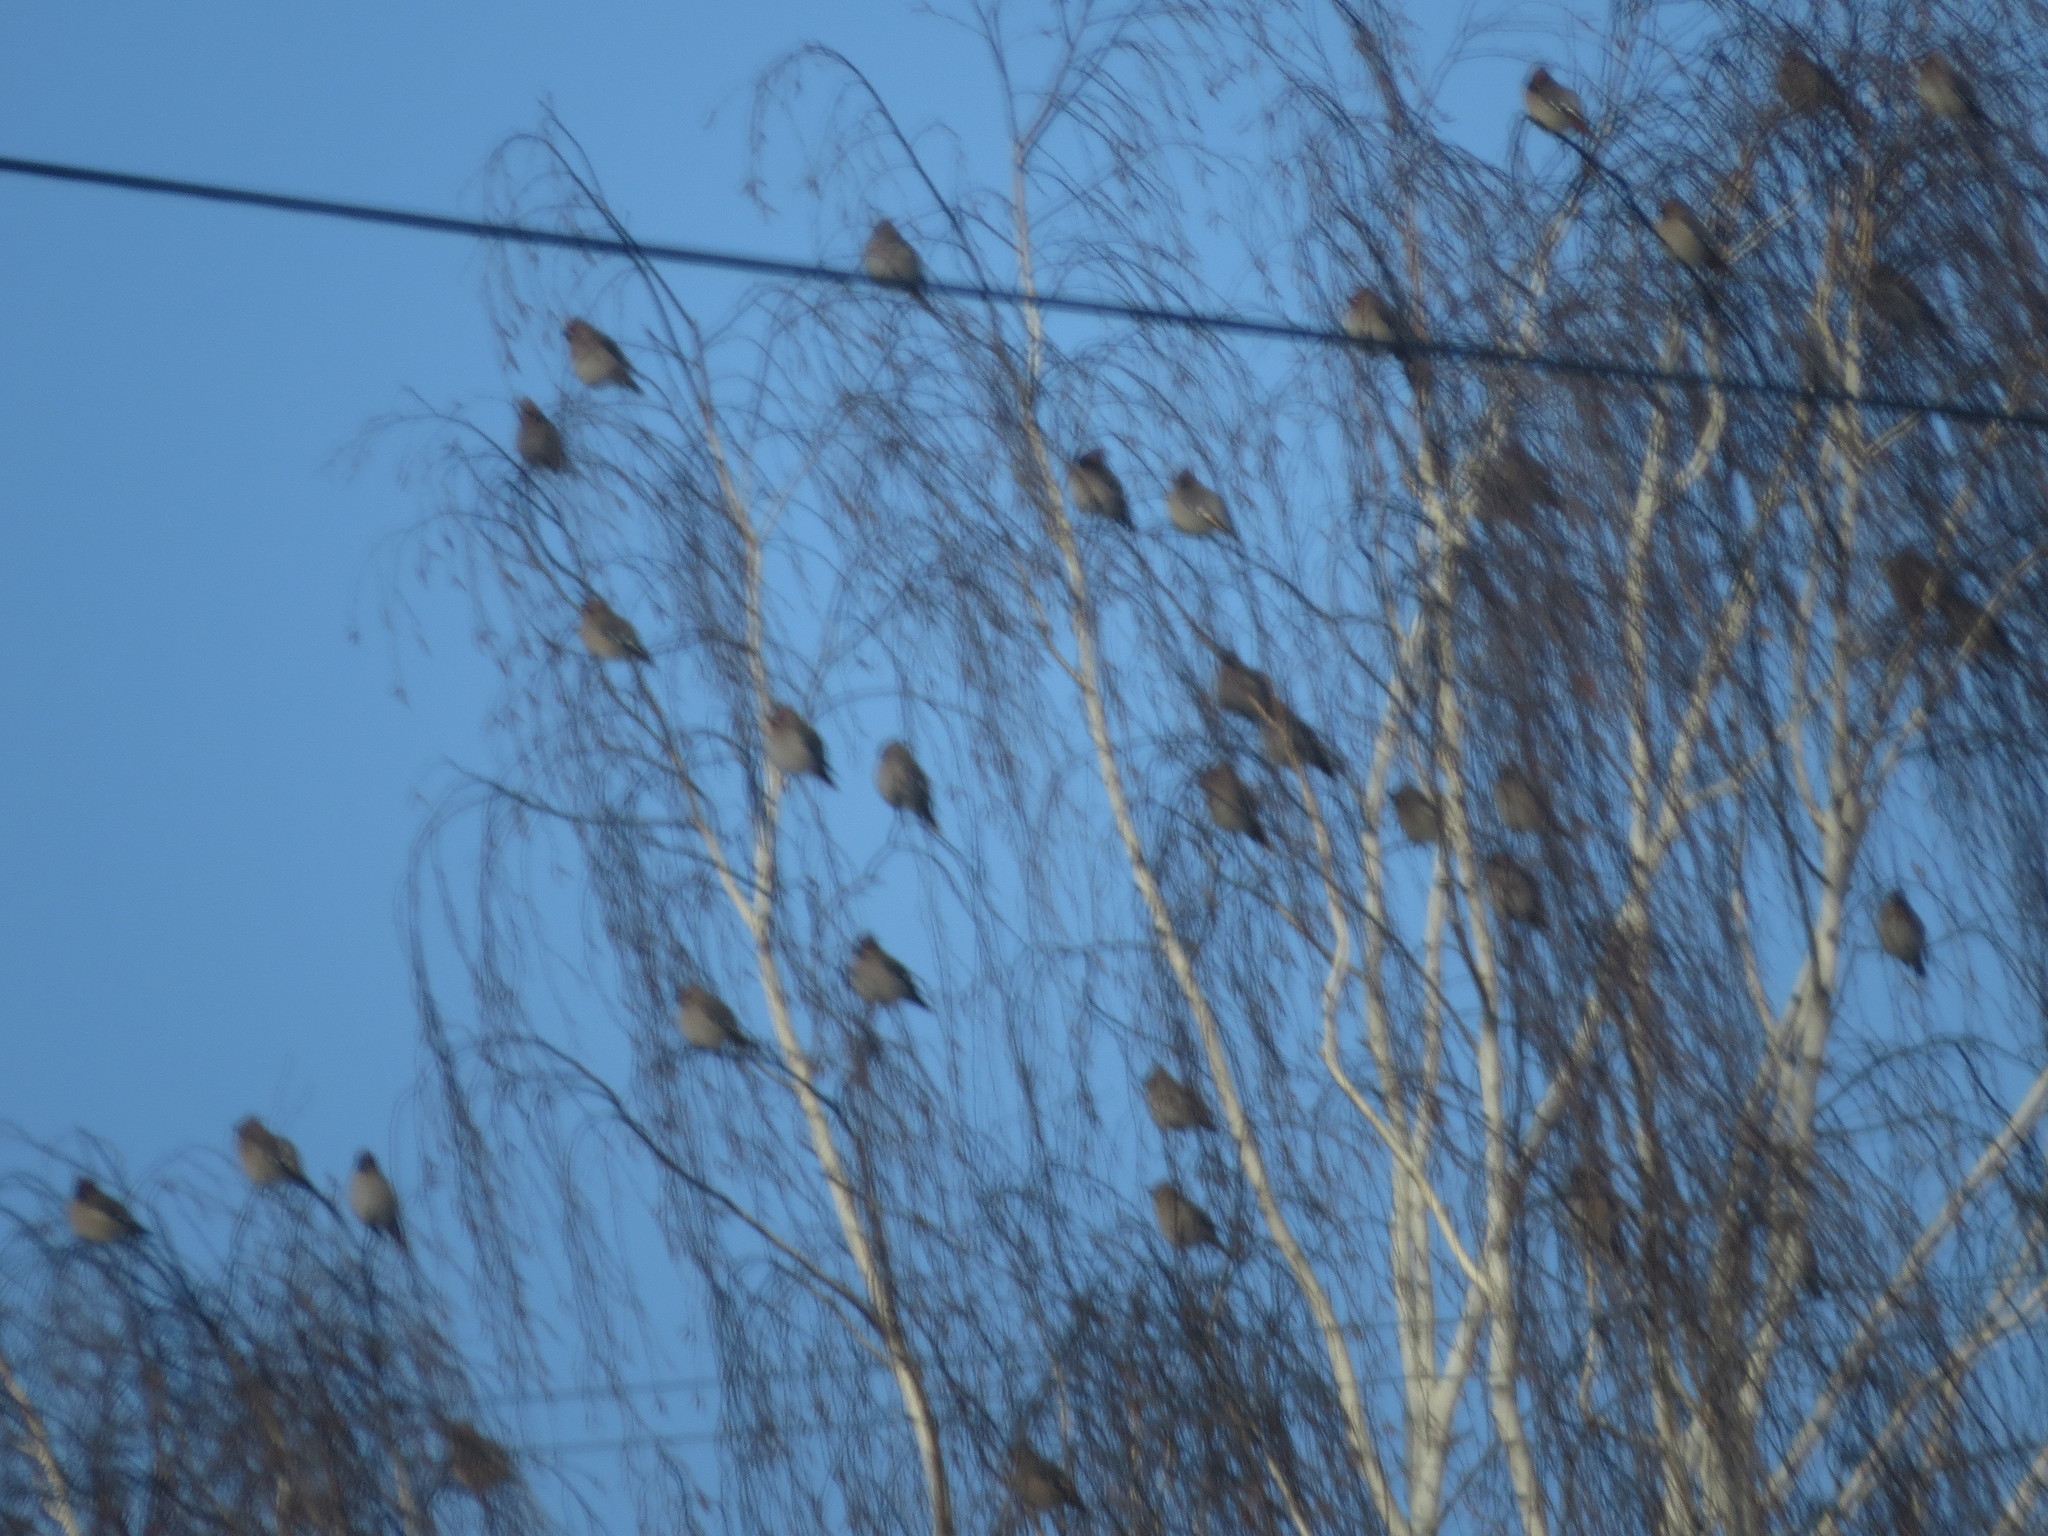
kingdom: Animalia
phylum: Chordata
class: Aves
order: Passeriformes
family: Bombycillidae
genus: Bombycilla
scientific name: Bombycilla garrulus
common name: Bohemian waxwing
